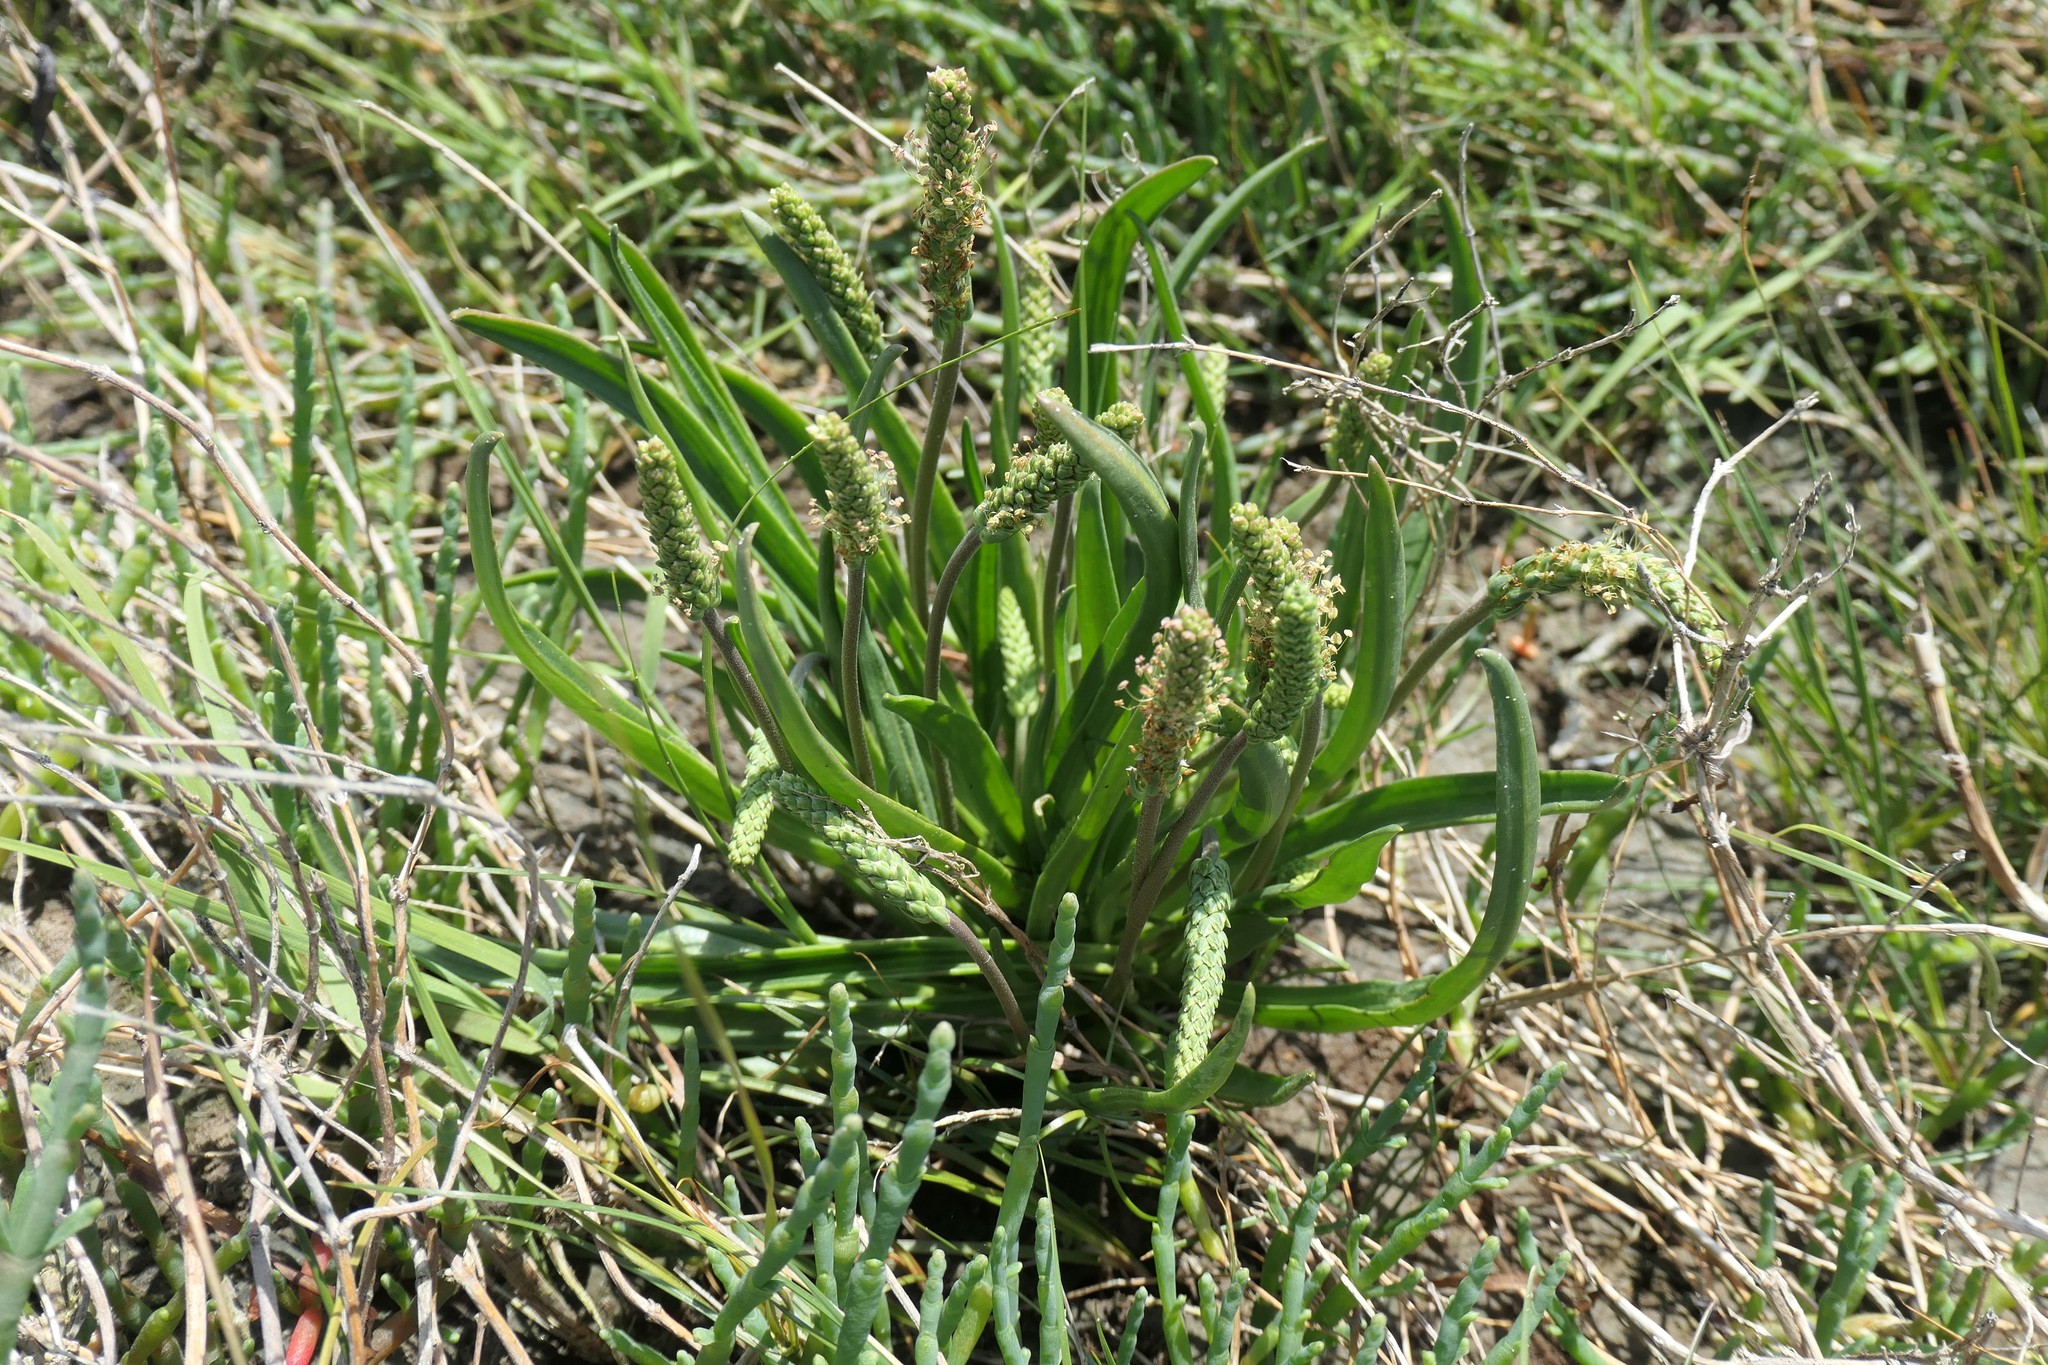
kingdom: Plantae
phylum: Tracheophyta
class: Magnoliopsida
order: Lamiales
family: Plantaginaceae
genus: Plantago
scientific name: Plantago maritima
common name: Sea plantain
